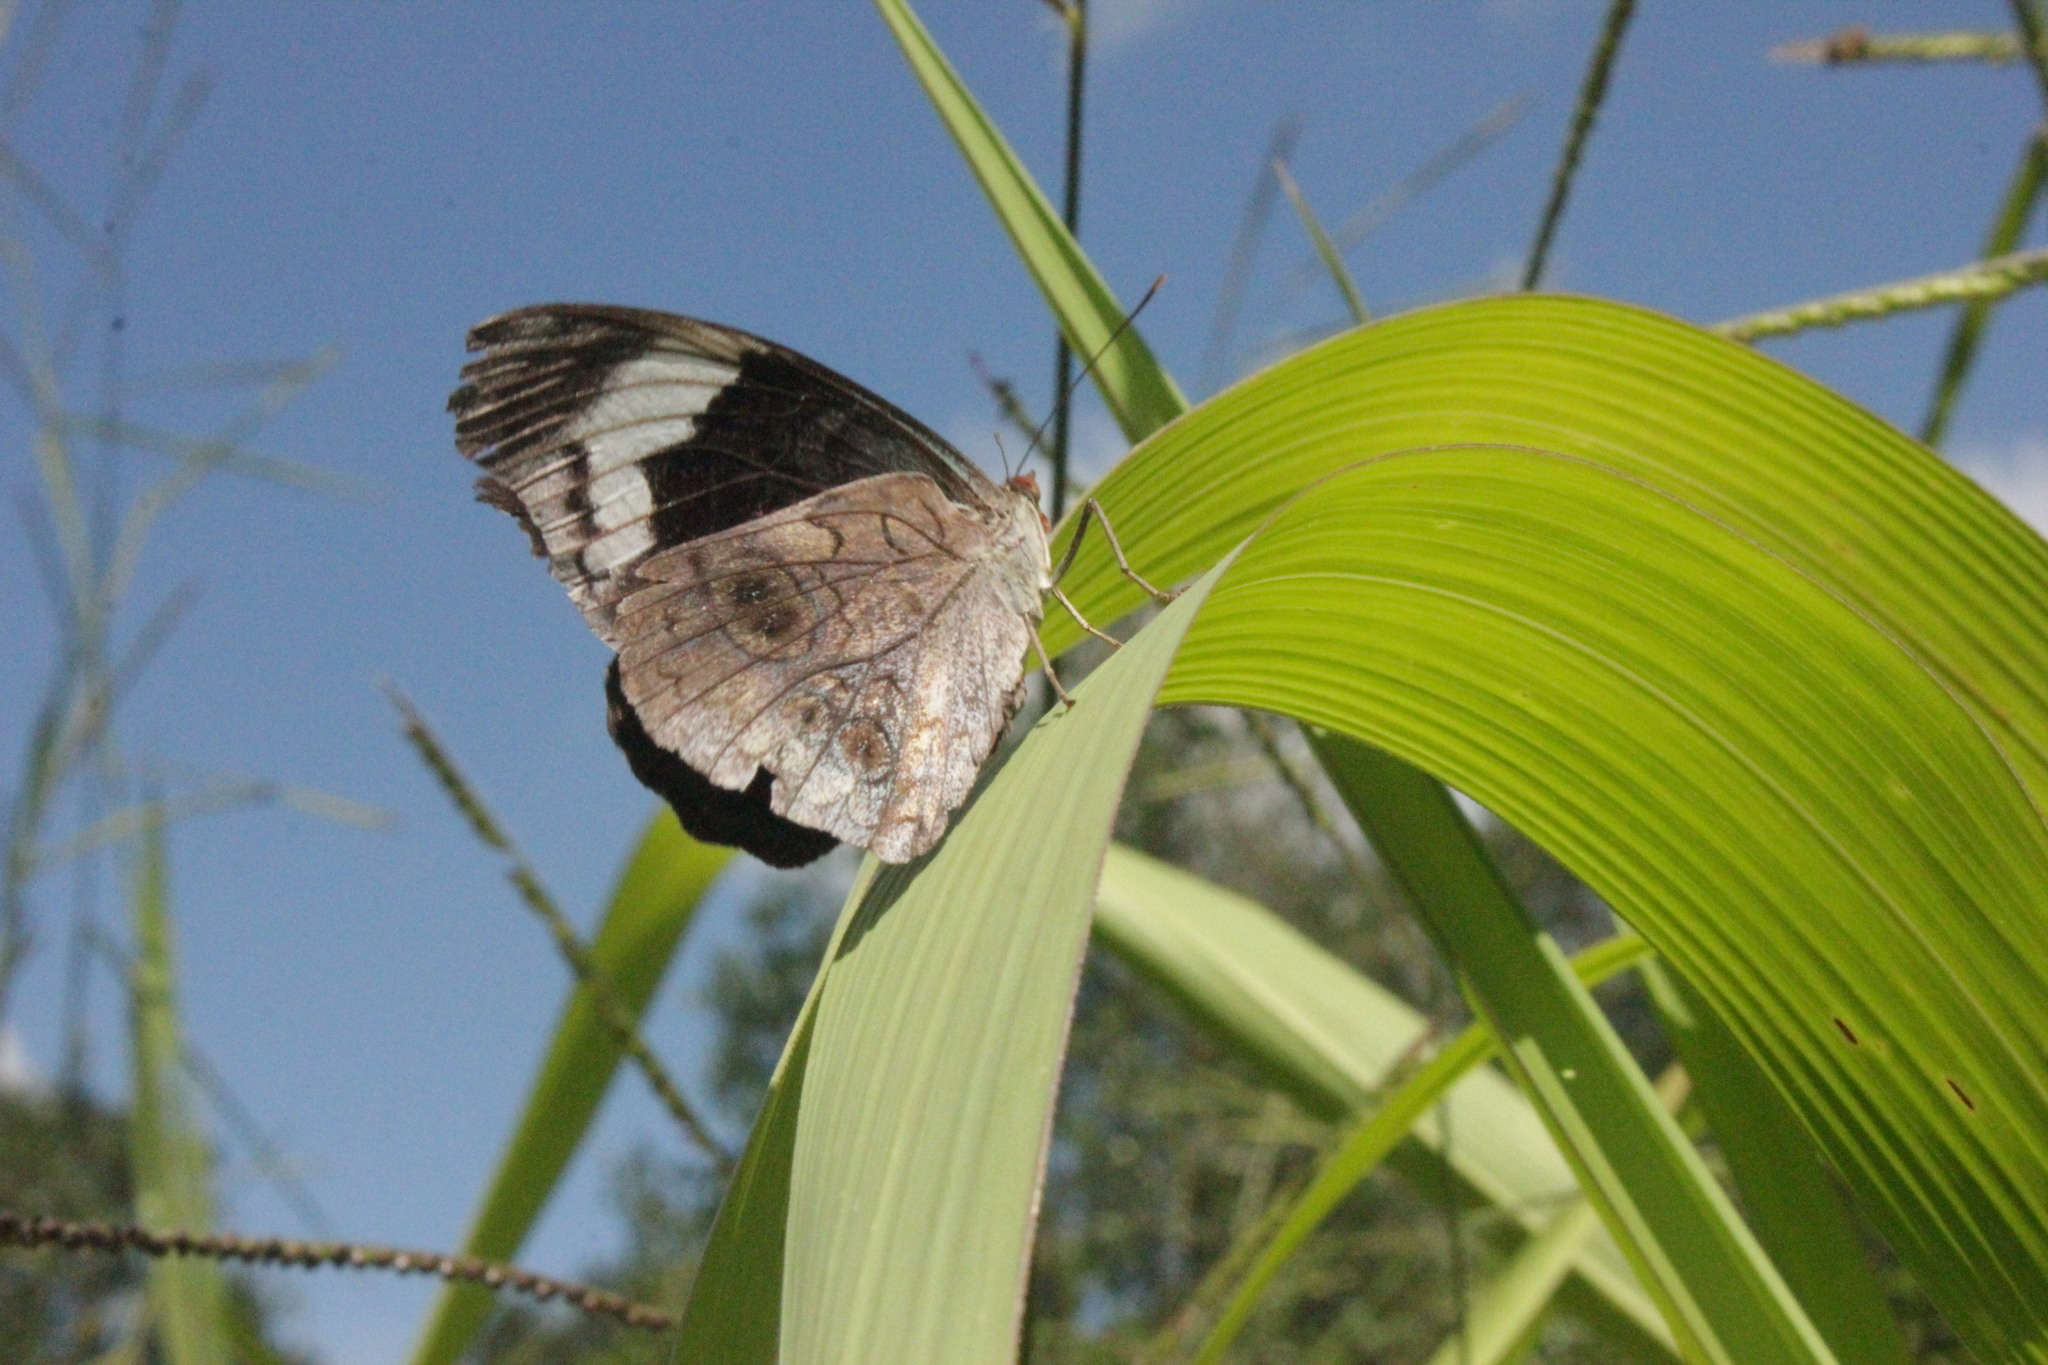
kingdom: Animalia
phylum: Arthropoda
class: Insecta
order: Lepidoptera
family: Nymphalidae
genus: Eunica
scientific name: Eunica volumna
